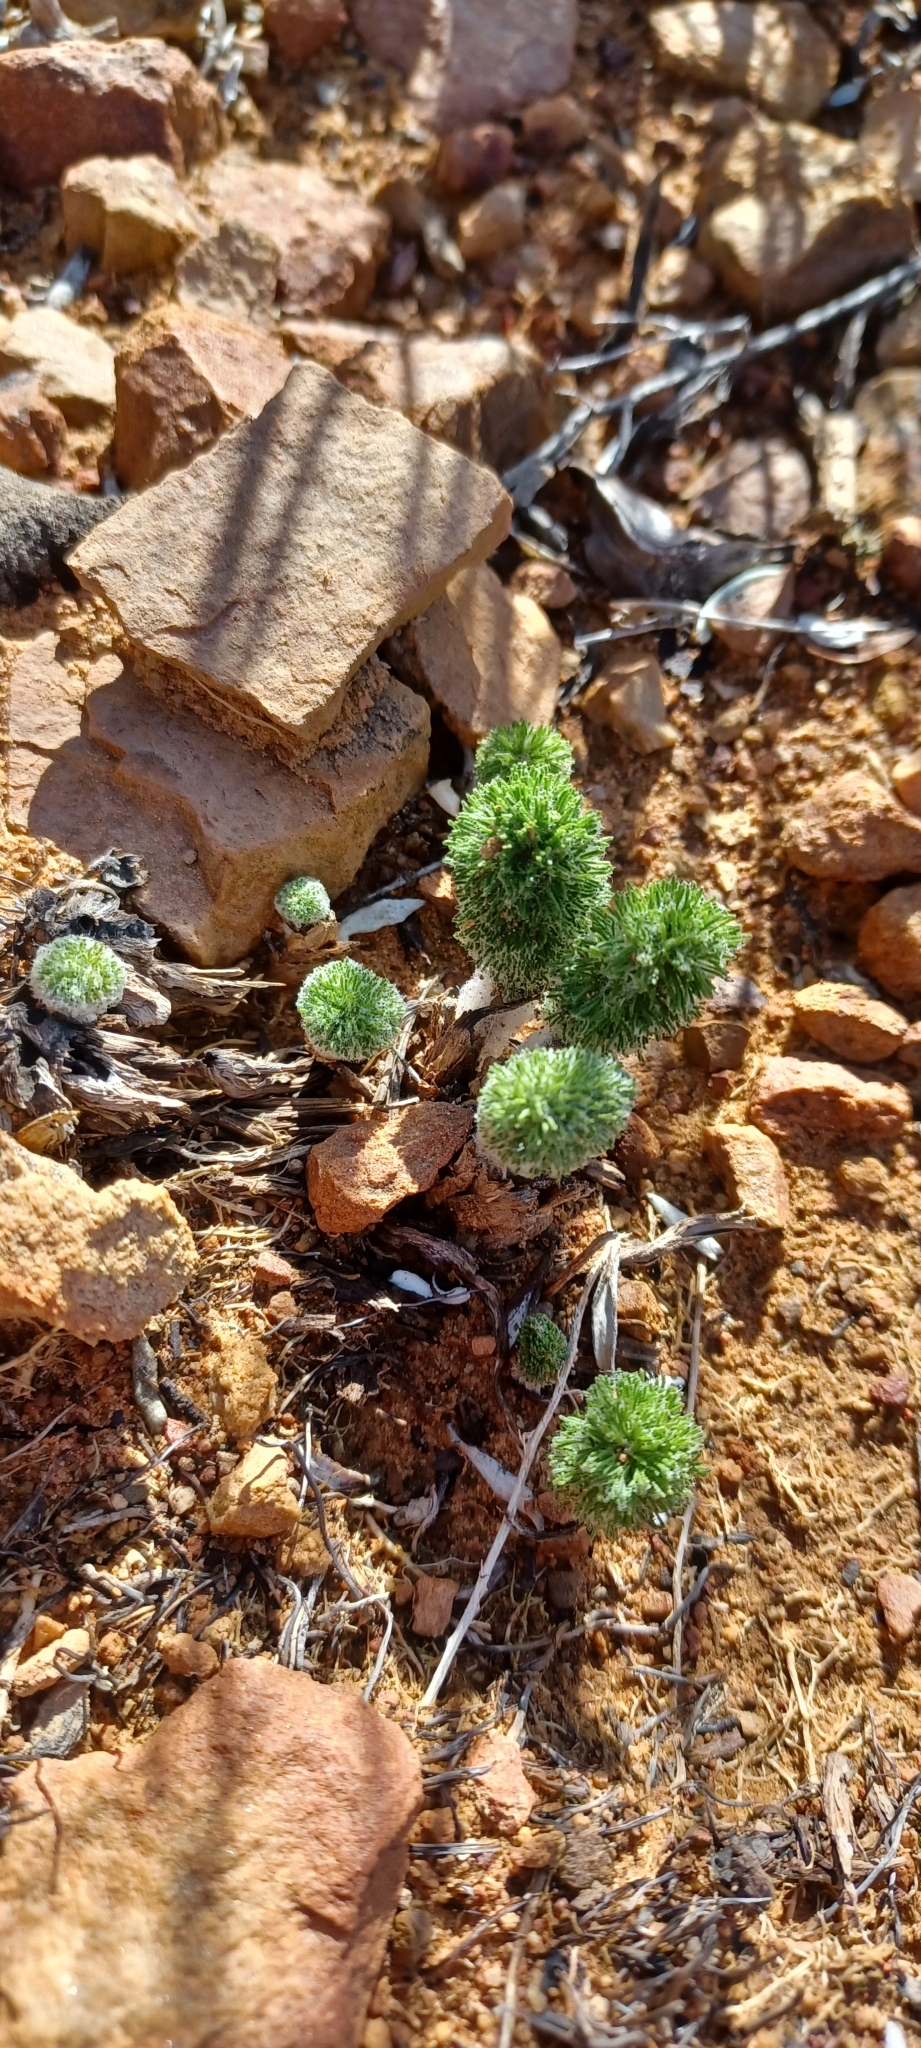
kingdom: Plantae
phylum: Tracheophyta
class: Liliopsida
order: Asparagales
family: Asparagaceae
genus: Eriospermum
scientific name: Eriospermum paradoxum
